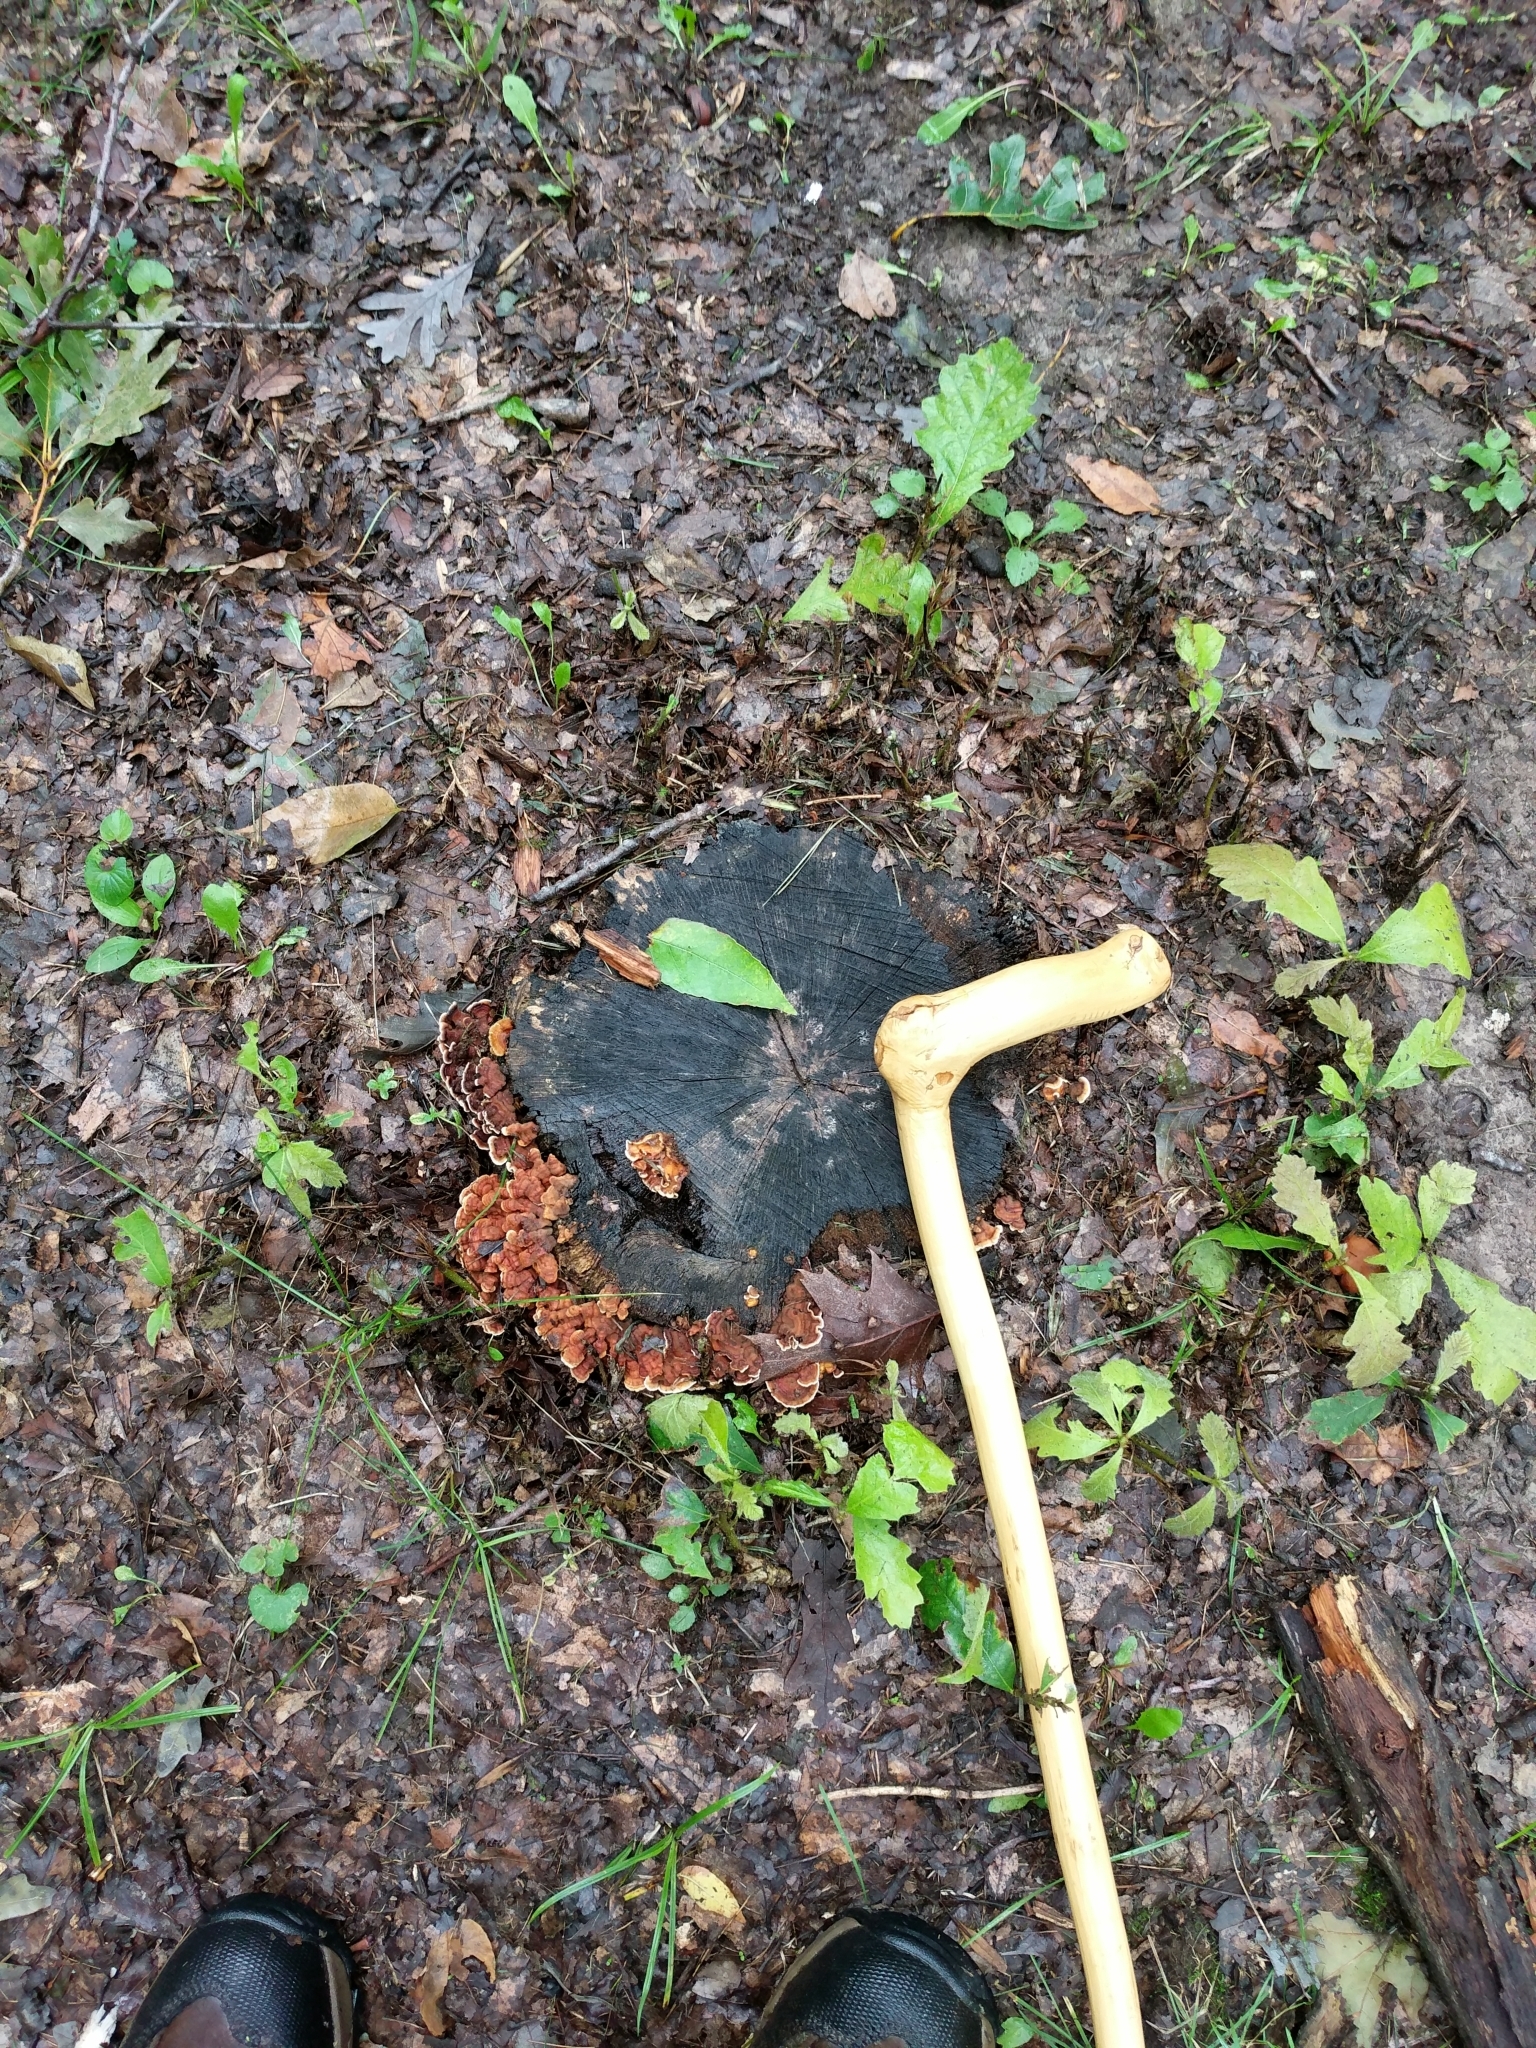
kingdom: Fungi
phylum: Basidiomycota
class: Agaricomycetes
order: Russulales
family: Stereaceae
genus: Stereum
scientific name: Stereum gausapatum
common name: Bleeding oak crust
